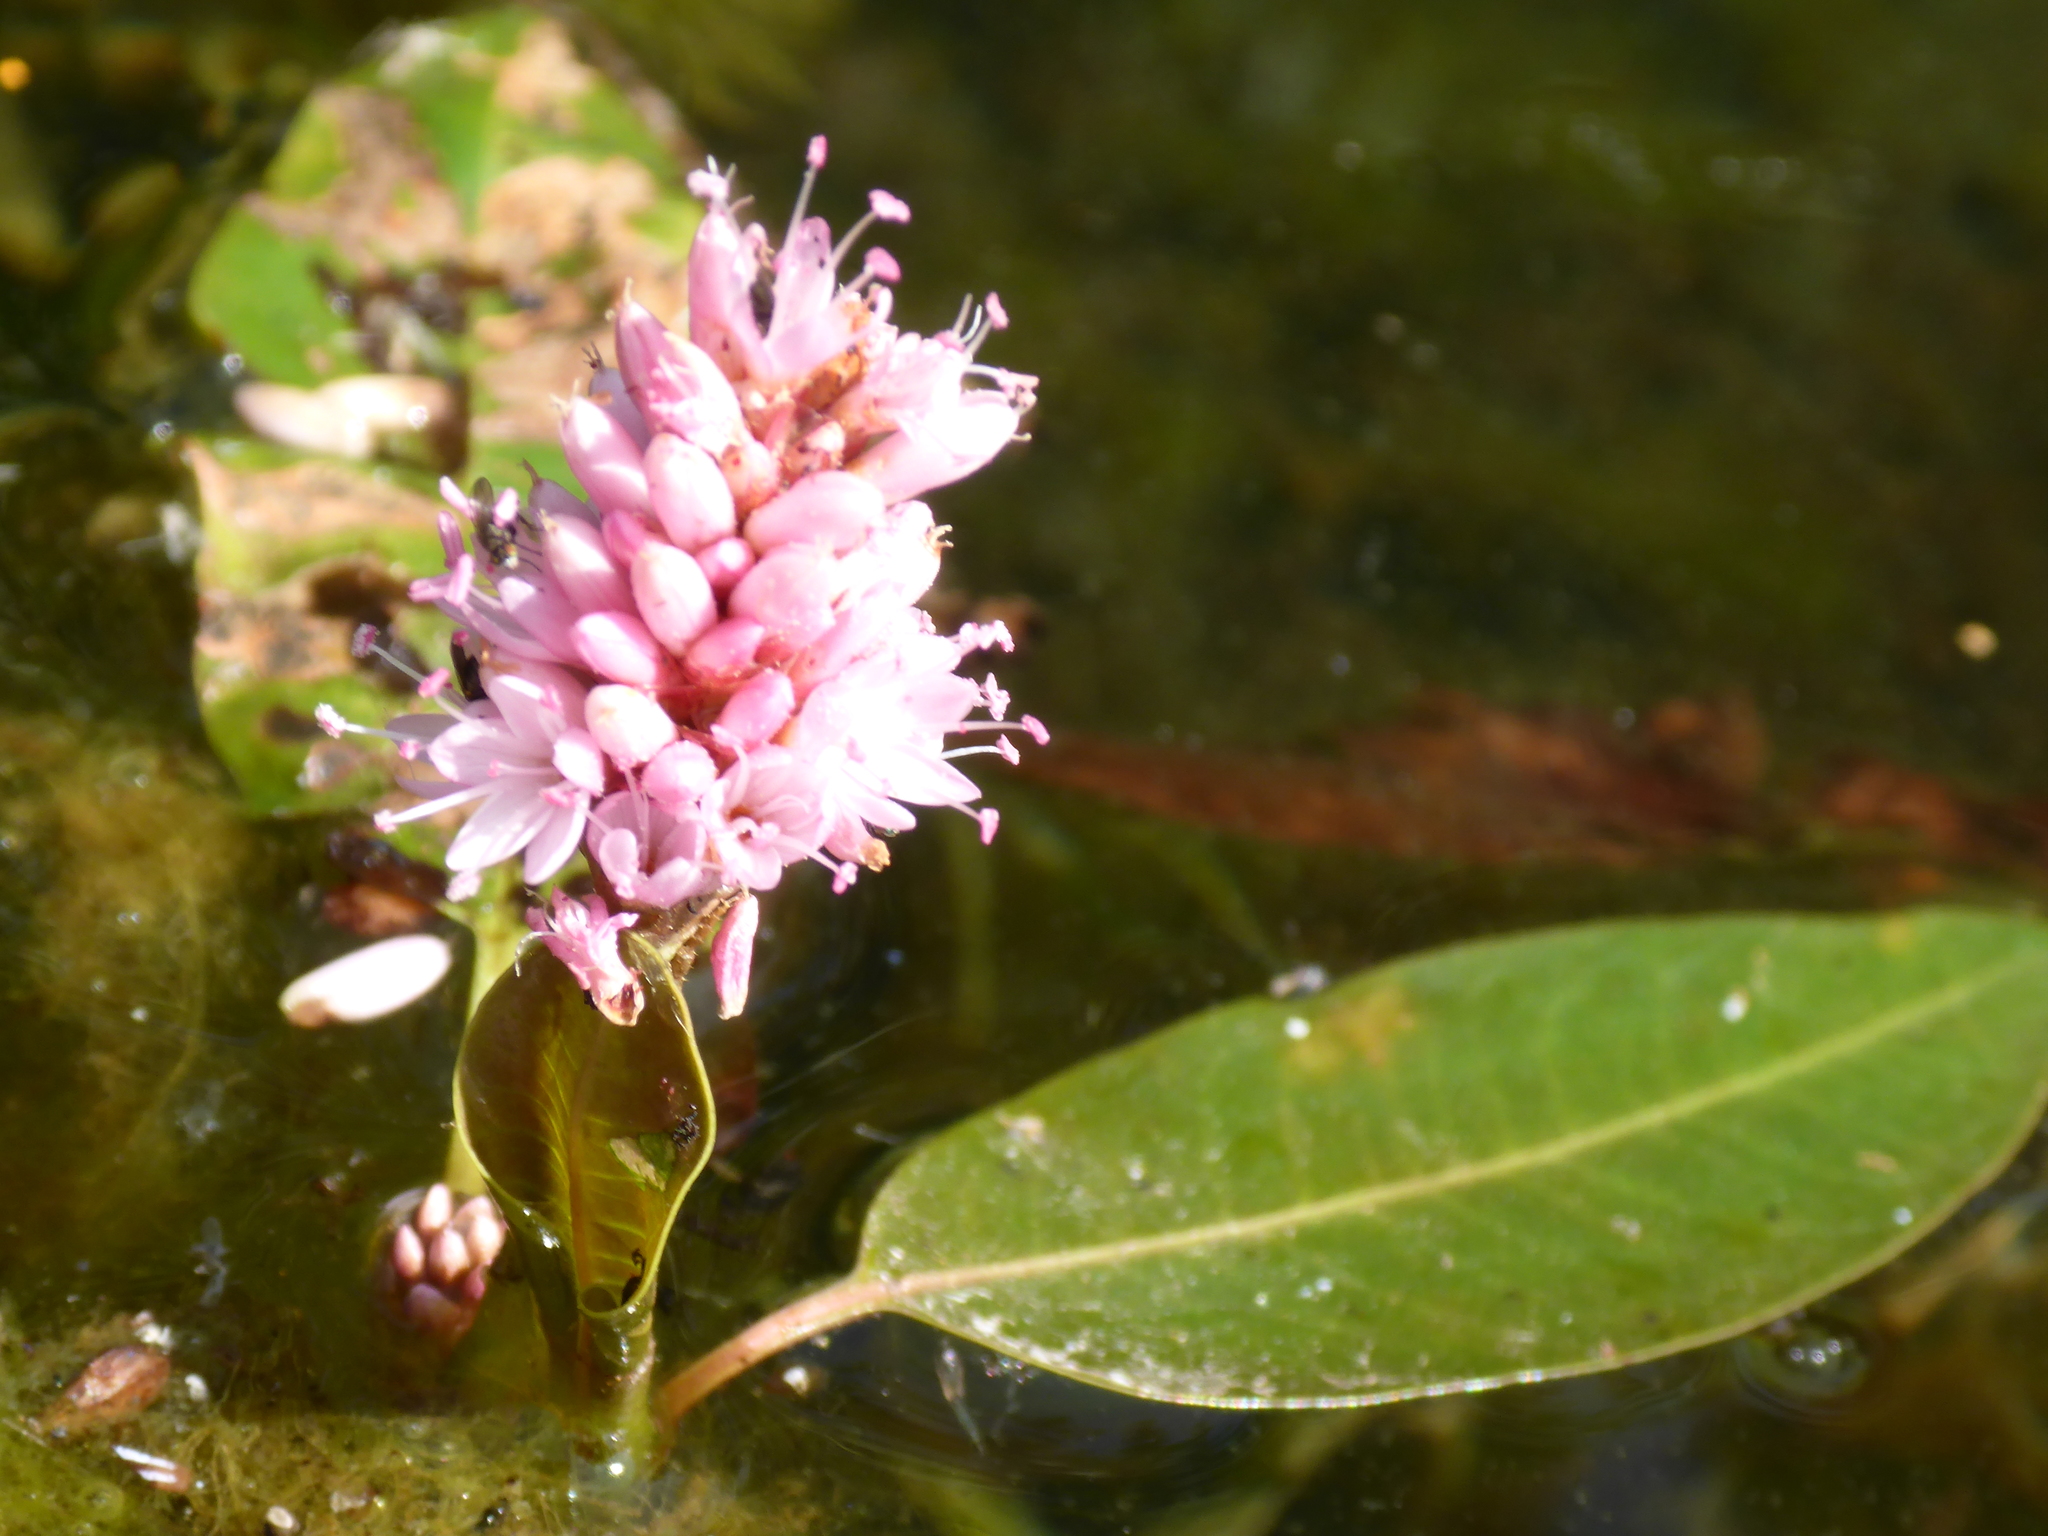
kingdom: Plantae
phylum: Tracheophyta
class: Magnoliopsida
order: Caryophyllales
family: Polygonaceae
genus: Persicaria
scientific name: Persicaria amphibia
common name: Amphibious bistort
